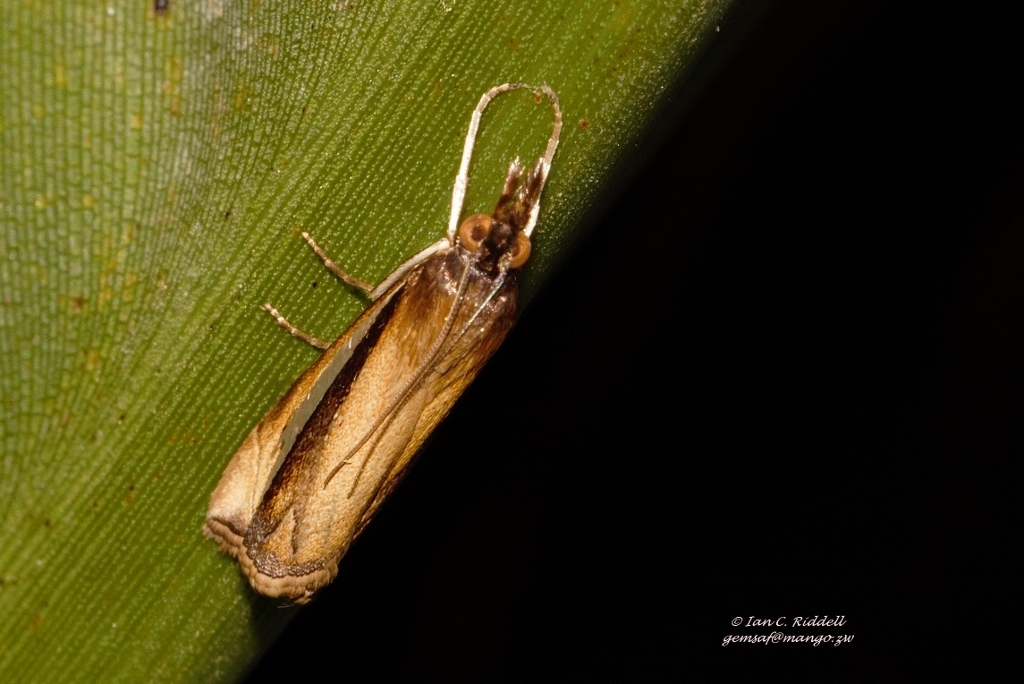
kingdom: Animalia
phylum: Arthropoda
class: Insecta
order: Lepidoptera
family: Crambidae
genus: Classeya
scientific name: Classeya argyrodonta
